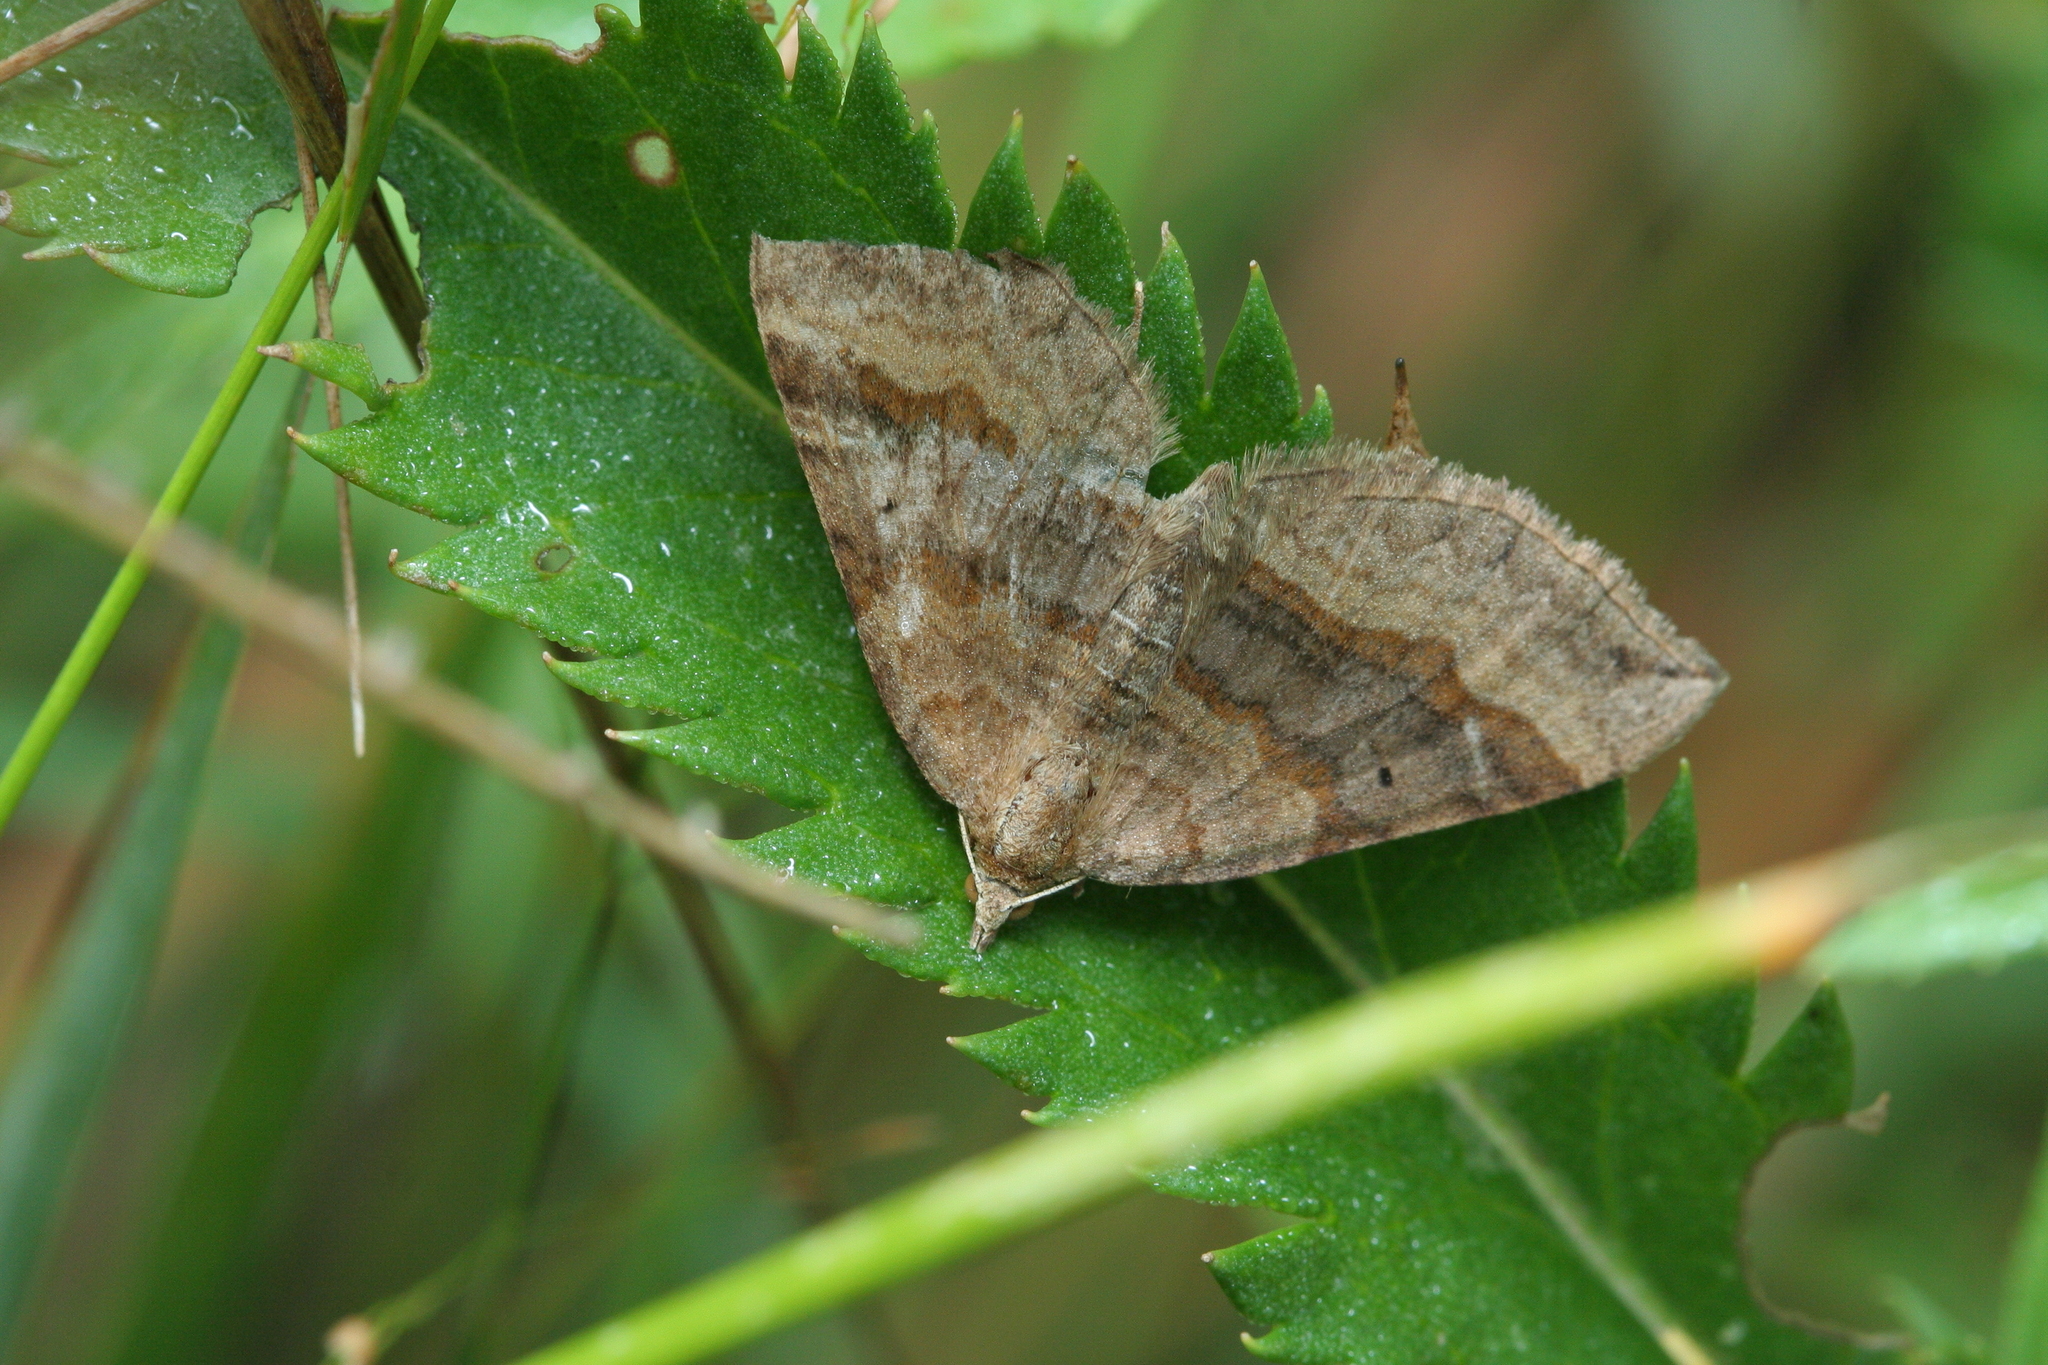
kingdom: Animalia
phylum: Arthropoda
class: Insecta
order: Lepidoptera
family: Geometridae
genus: Scotopteryx
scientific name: Scotopteryx chenopodiata
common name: Shaded broad-bar
